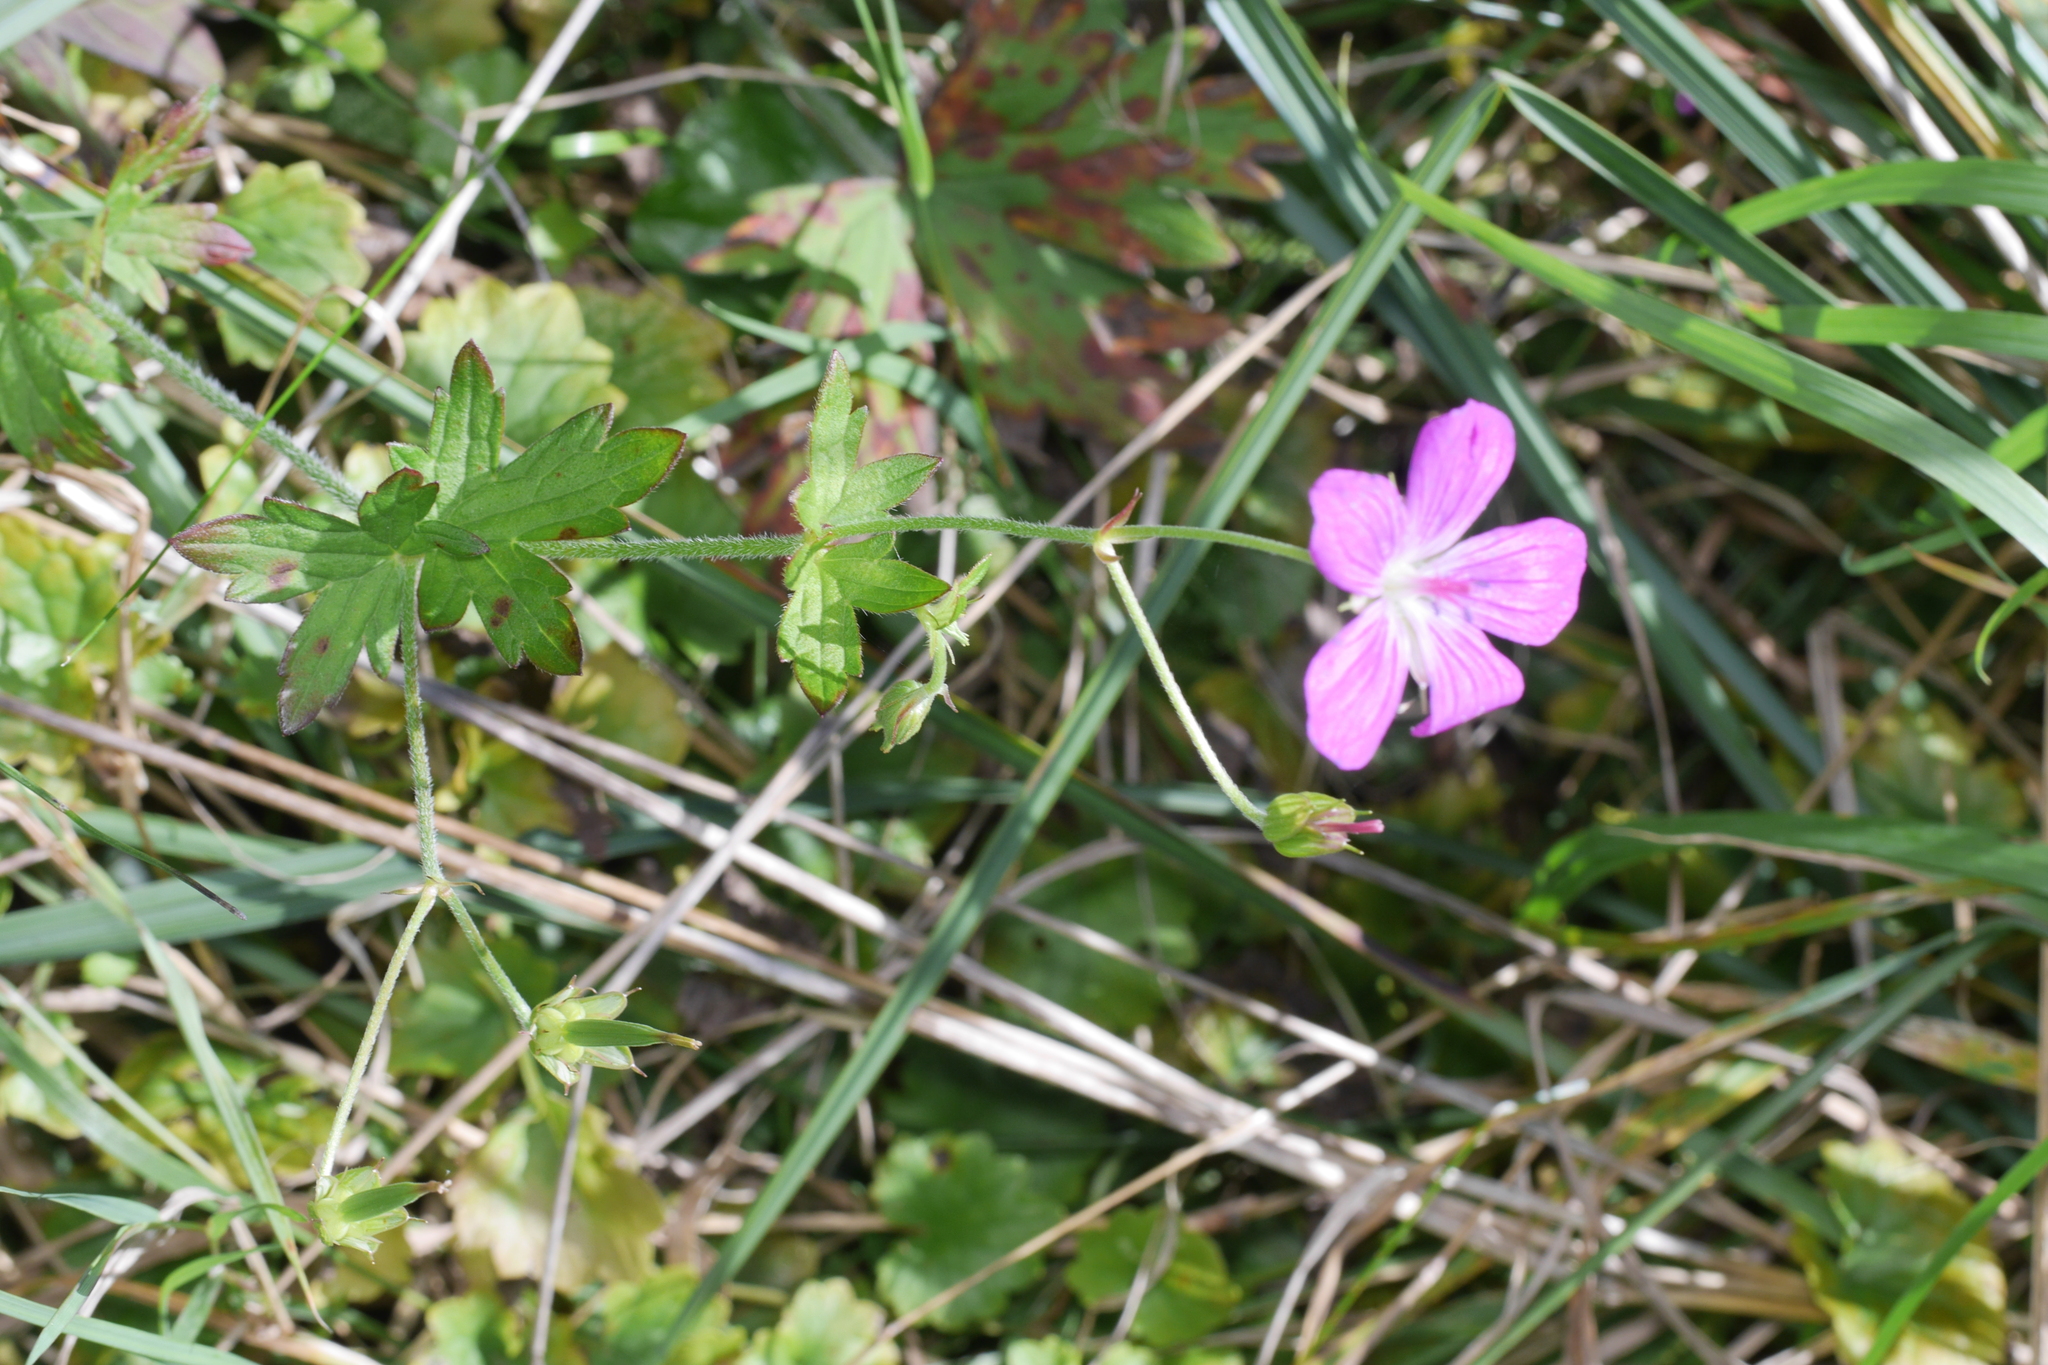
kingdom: Plantae
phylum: Tracheophyta
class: Magnoliopsida
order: Geraniales
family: Geraniaceae
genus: Geranium
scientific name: Geranium palustre
